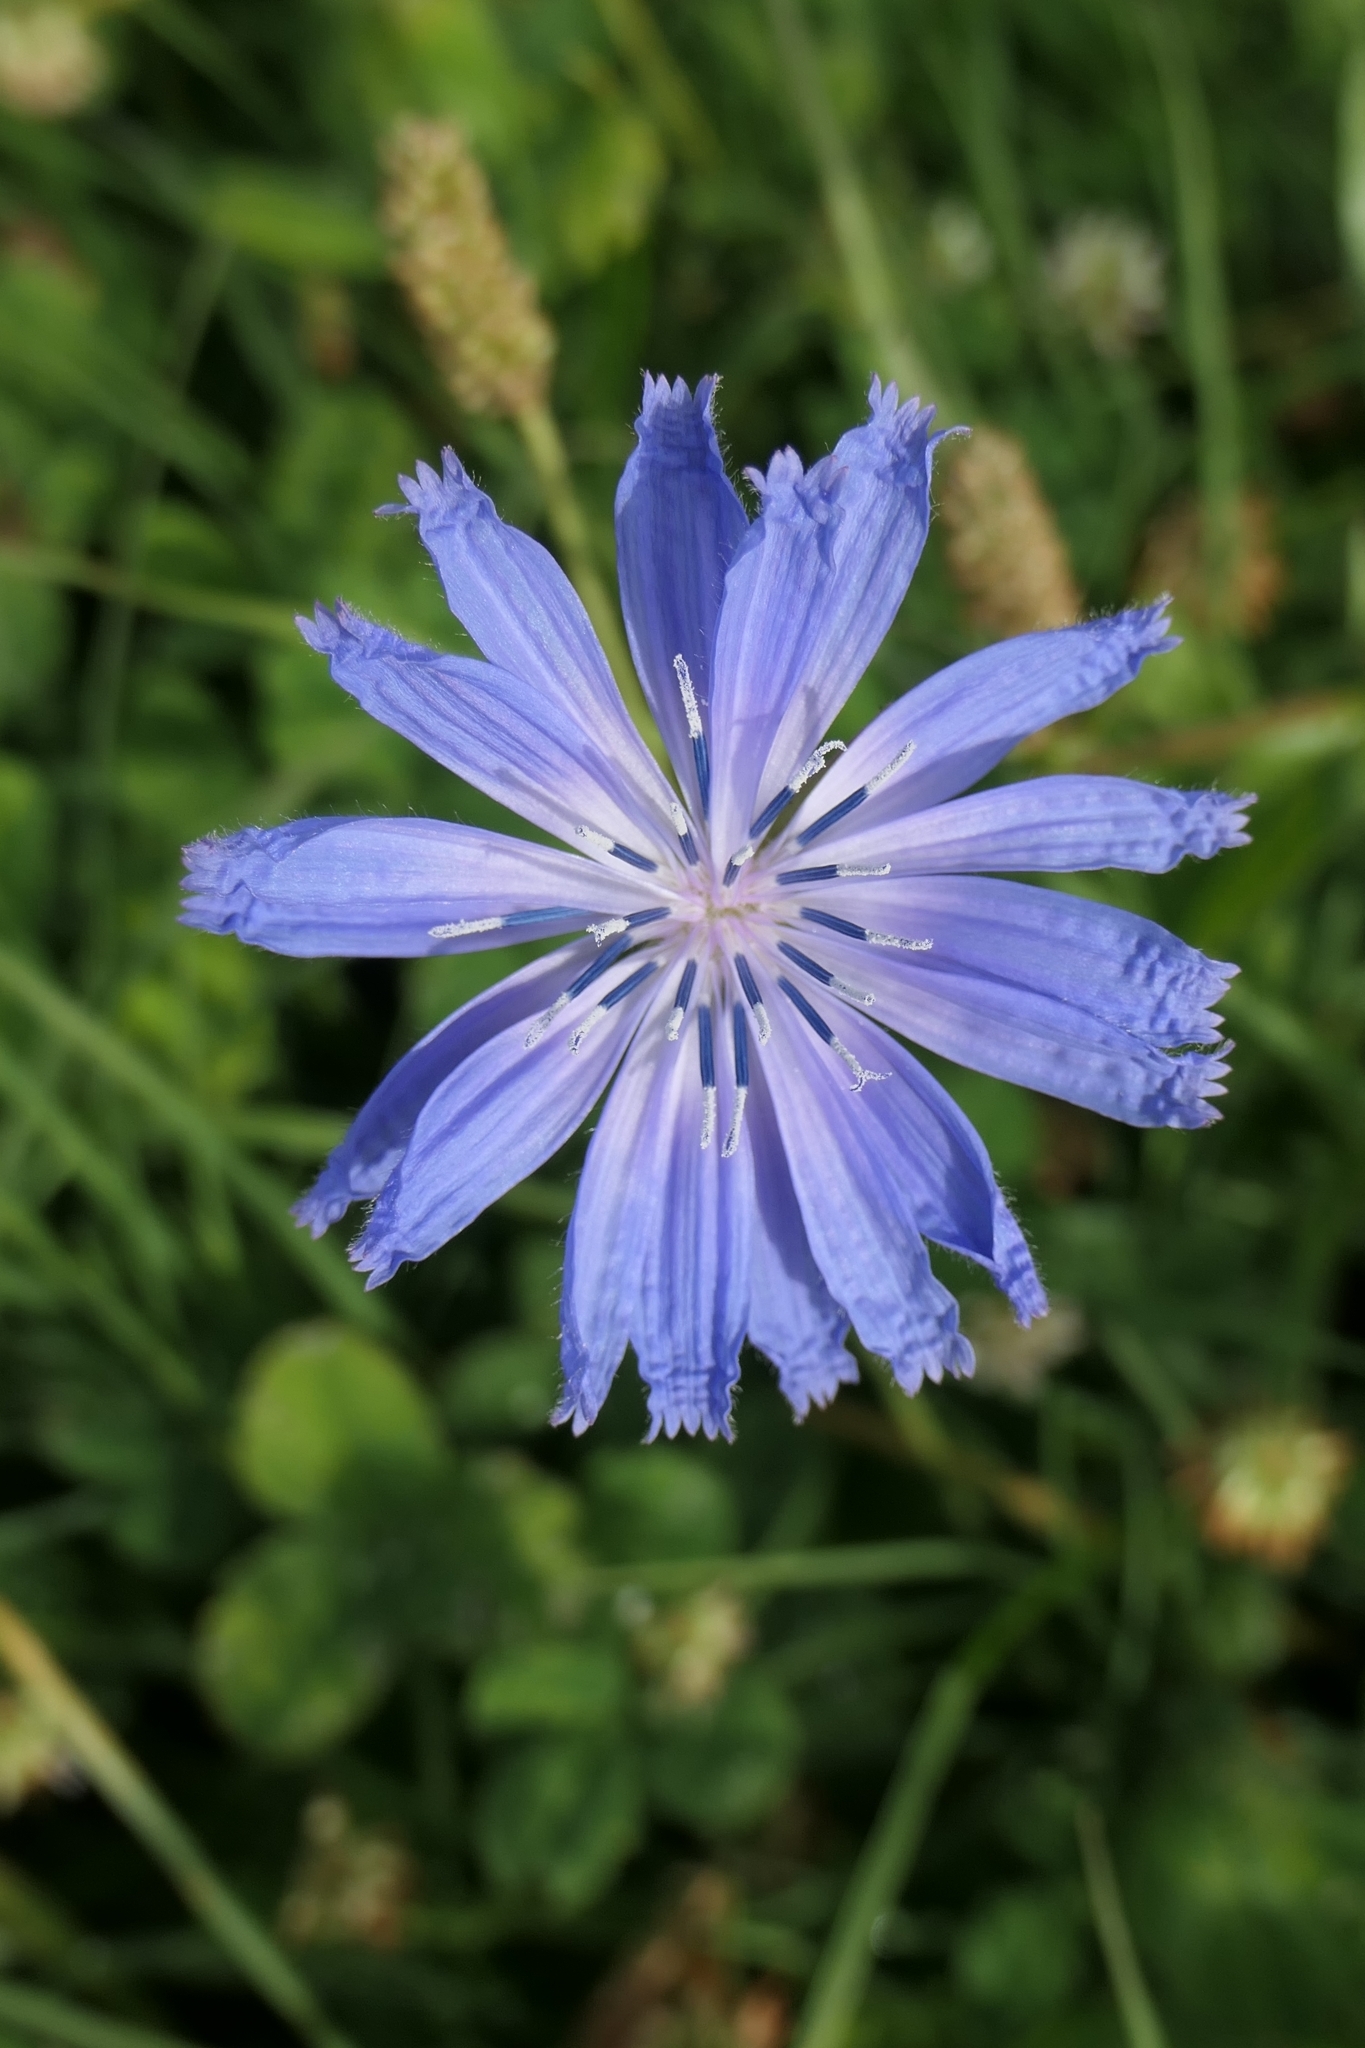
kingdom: Plantae
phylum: Tracheophyta
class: Magnoliopsida
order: Asterales
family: Asteraceae
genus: Cichorium
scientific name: Cichorium intybus
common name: Chicory
